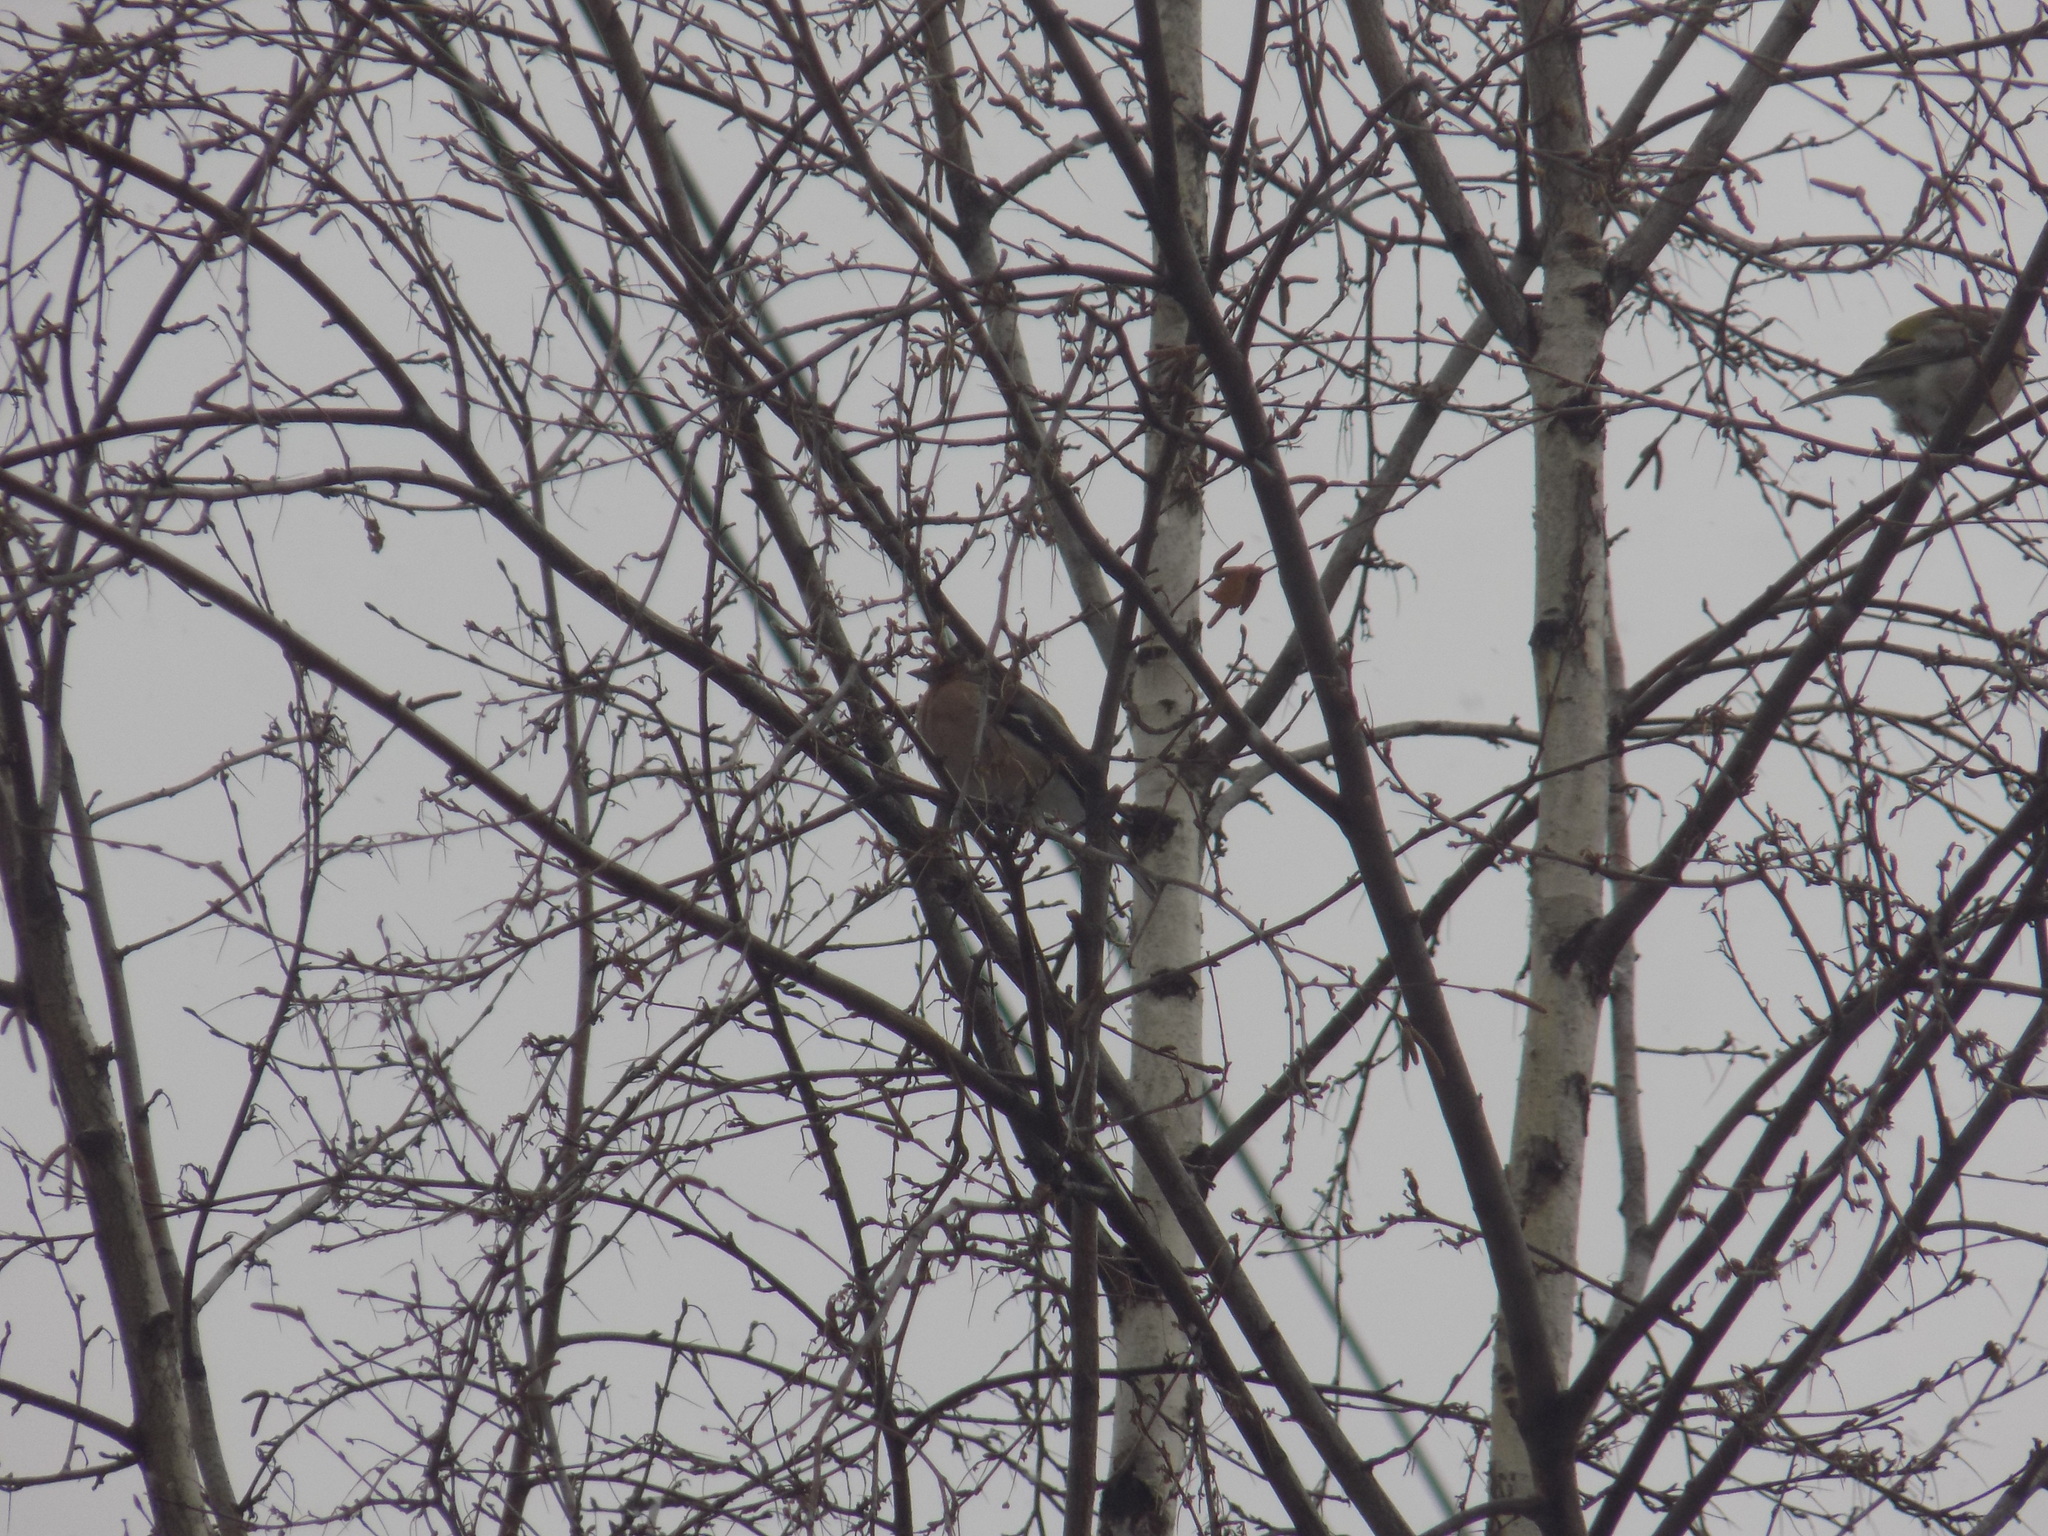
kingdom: Animalia
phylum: Chordata
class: Aves
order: Passeriformes
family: Fringillidae
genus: Fringilla
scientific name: Fringilla coelebs
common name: Common chaffinch
